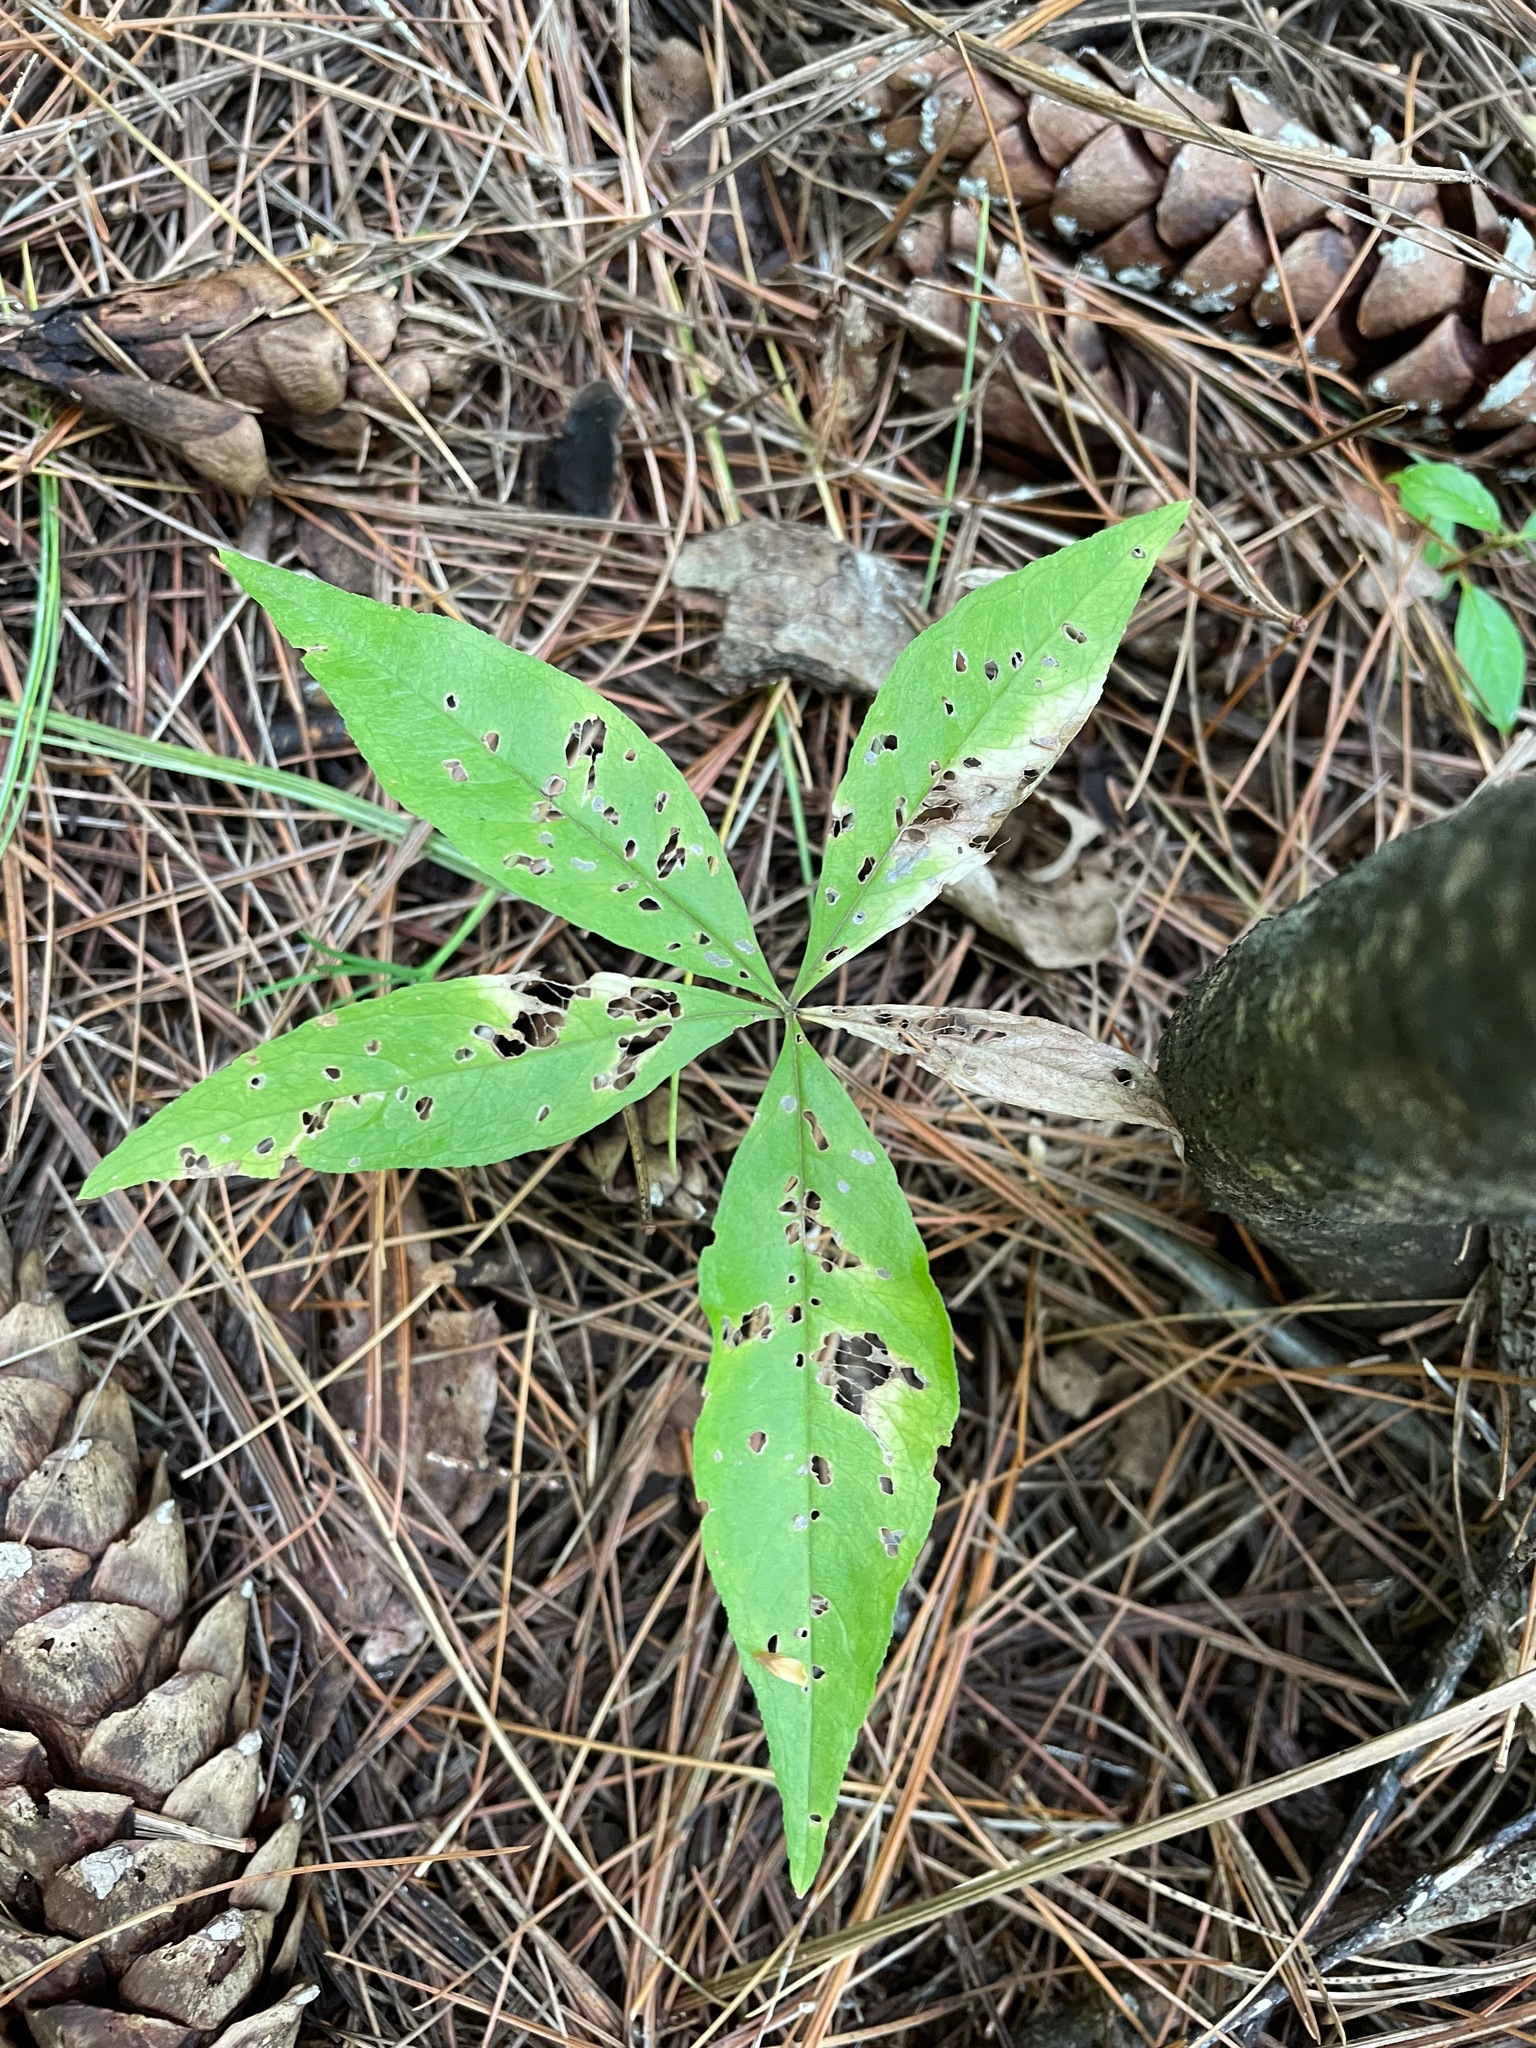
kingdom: Plantae
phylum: Tracheophyta
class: Magnoliopsida
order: Ericales
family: Primulaceae
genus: Lysimachia
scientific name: Lysimachia borealis
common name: American starflower
